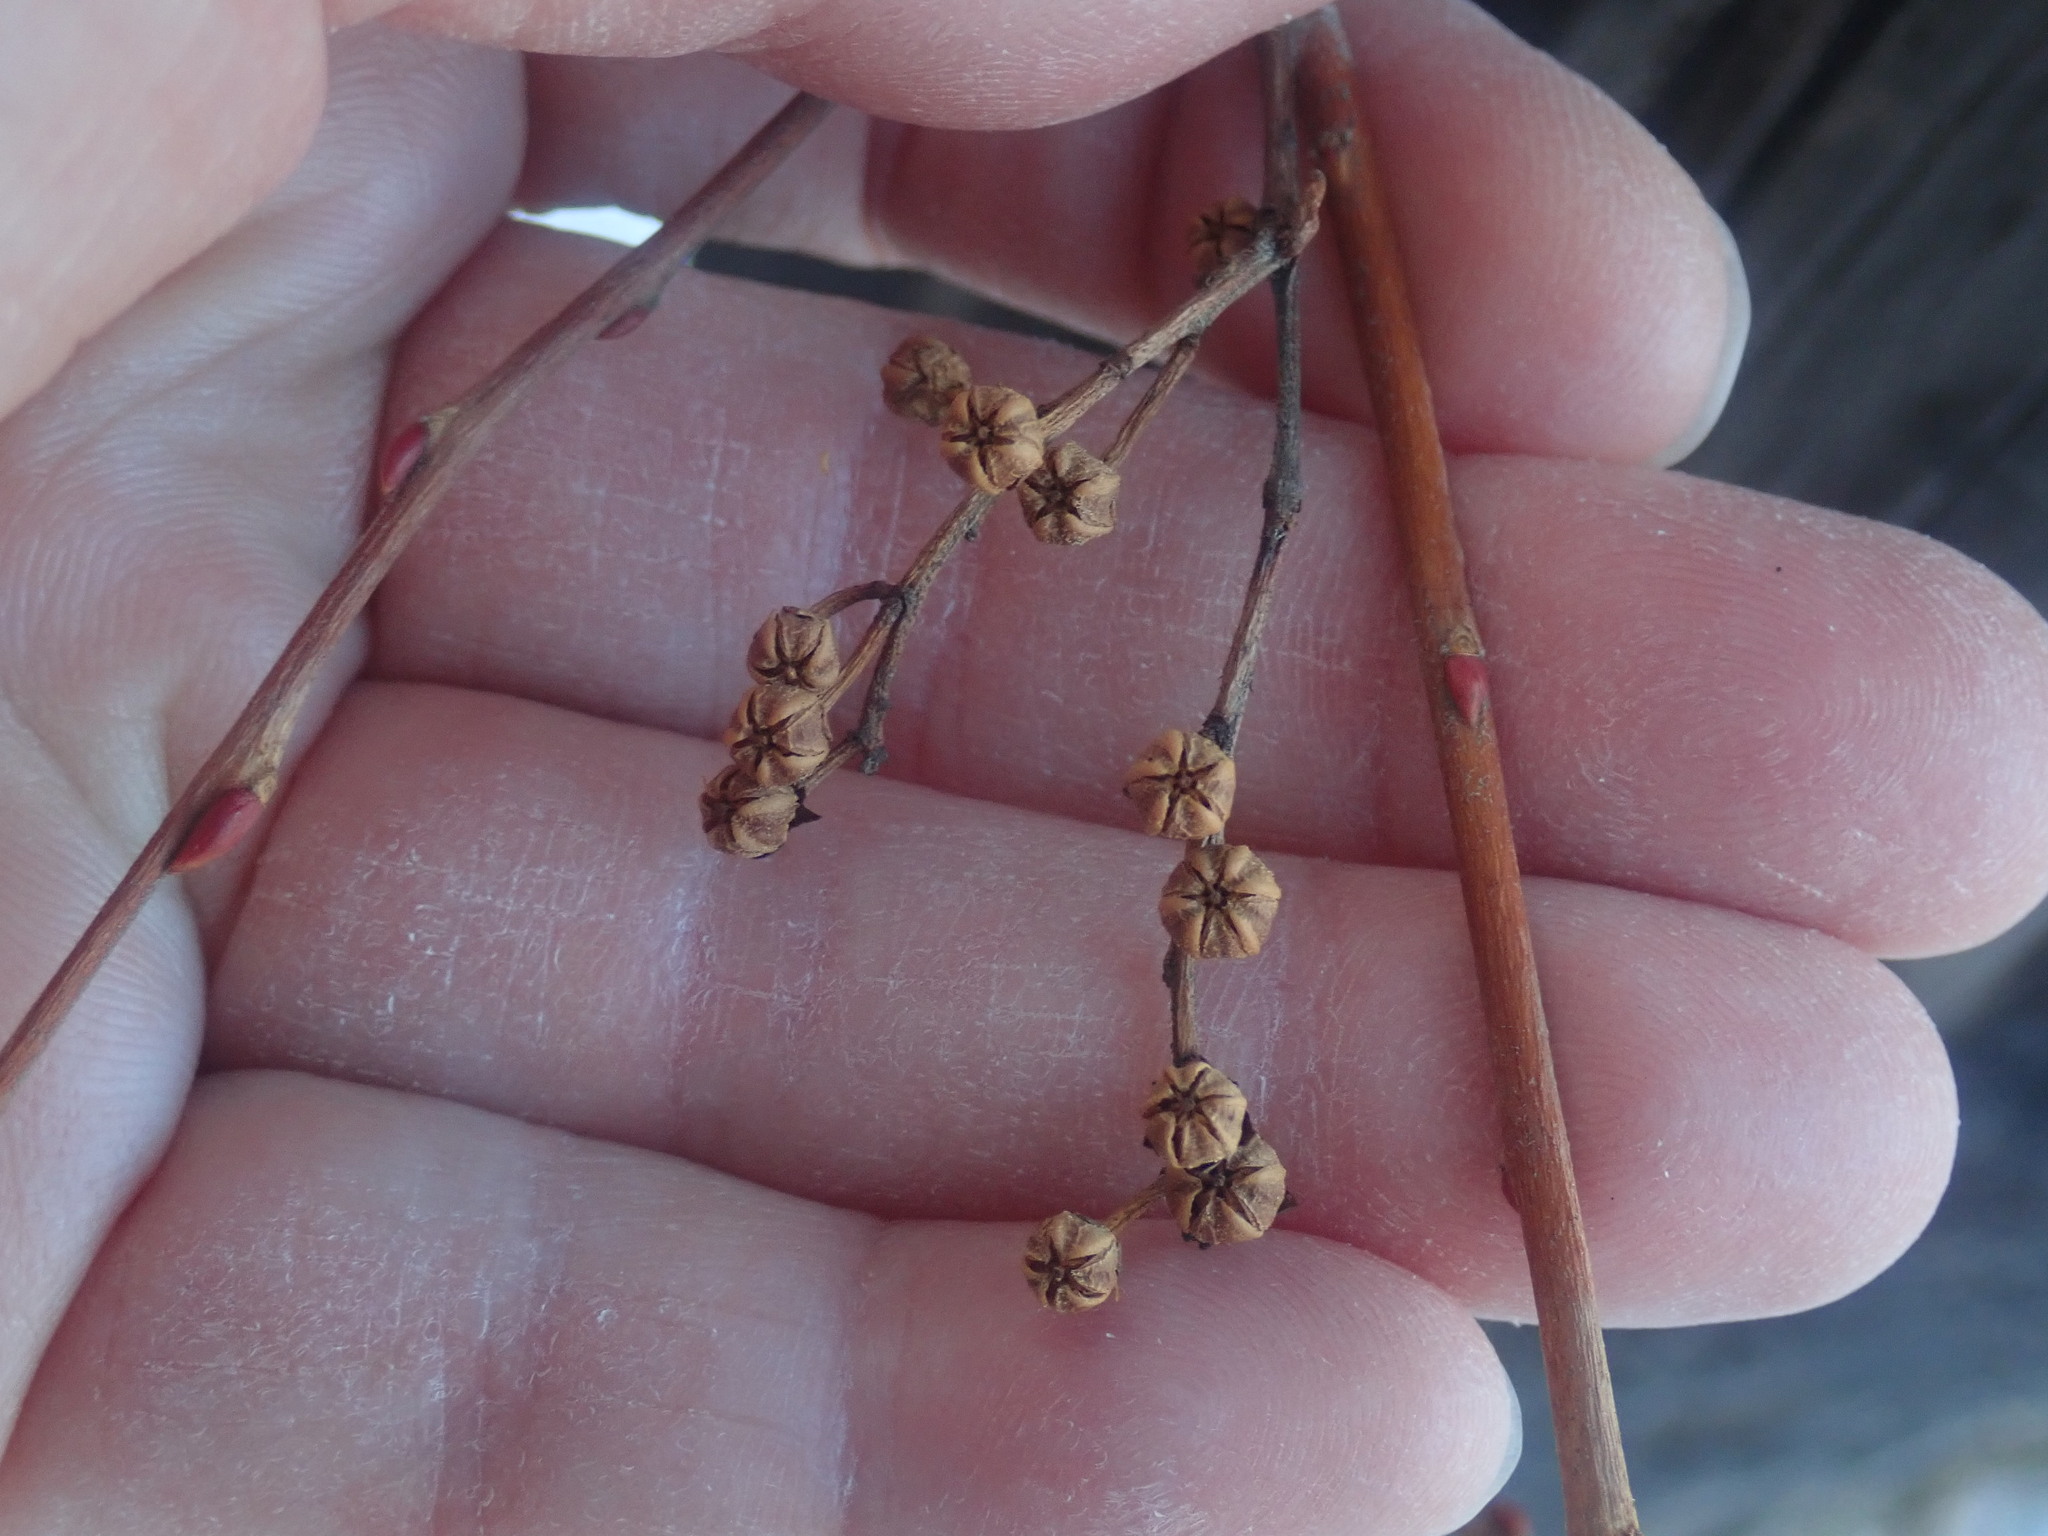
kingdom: Plantae
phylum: Tracheophyta
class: Magnoliopsida
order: Ericales
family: Ericaceae
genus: Lyonia
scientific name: Lyonia ligustrina
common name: Maleberry
